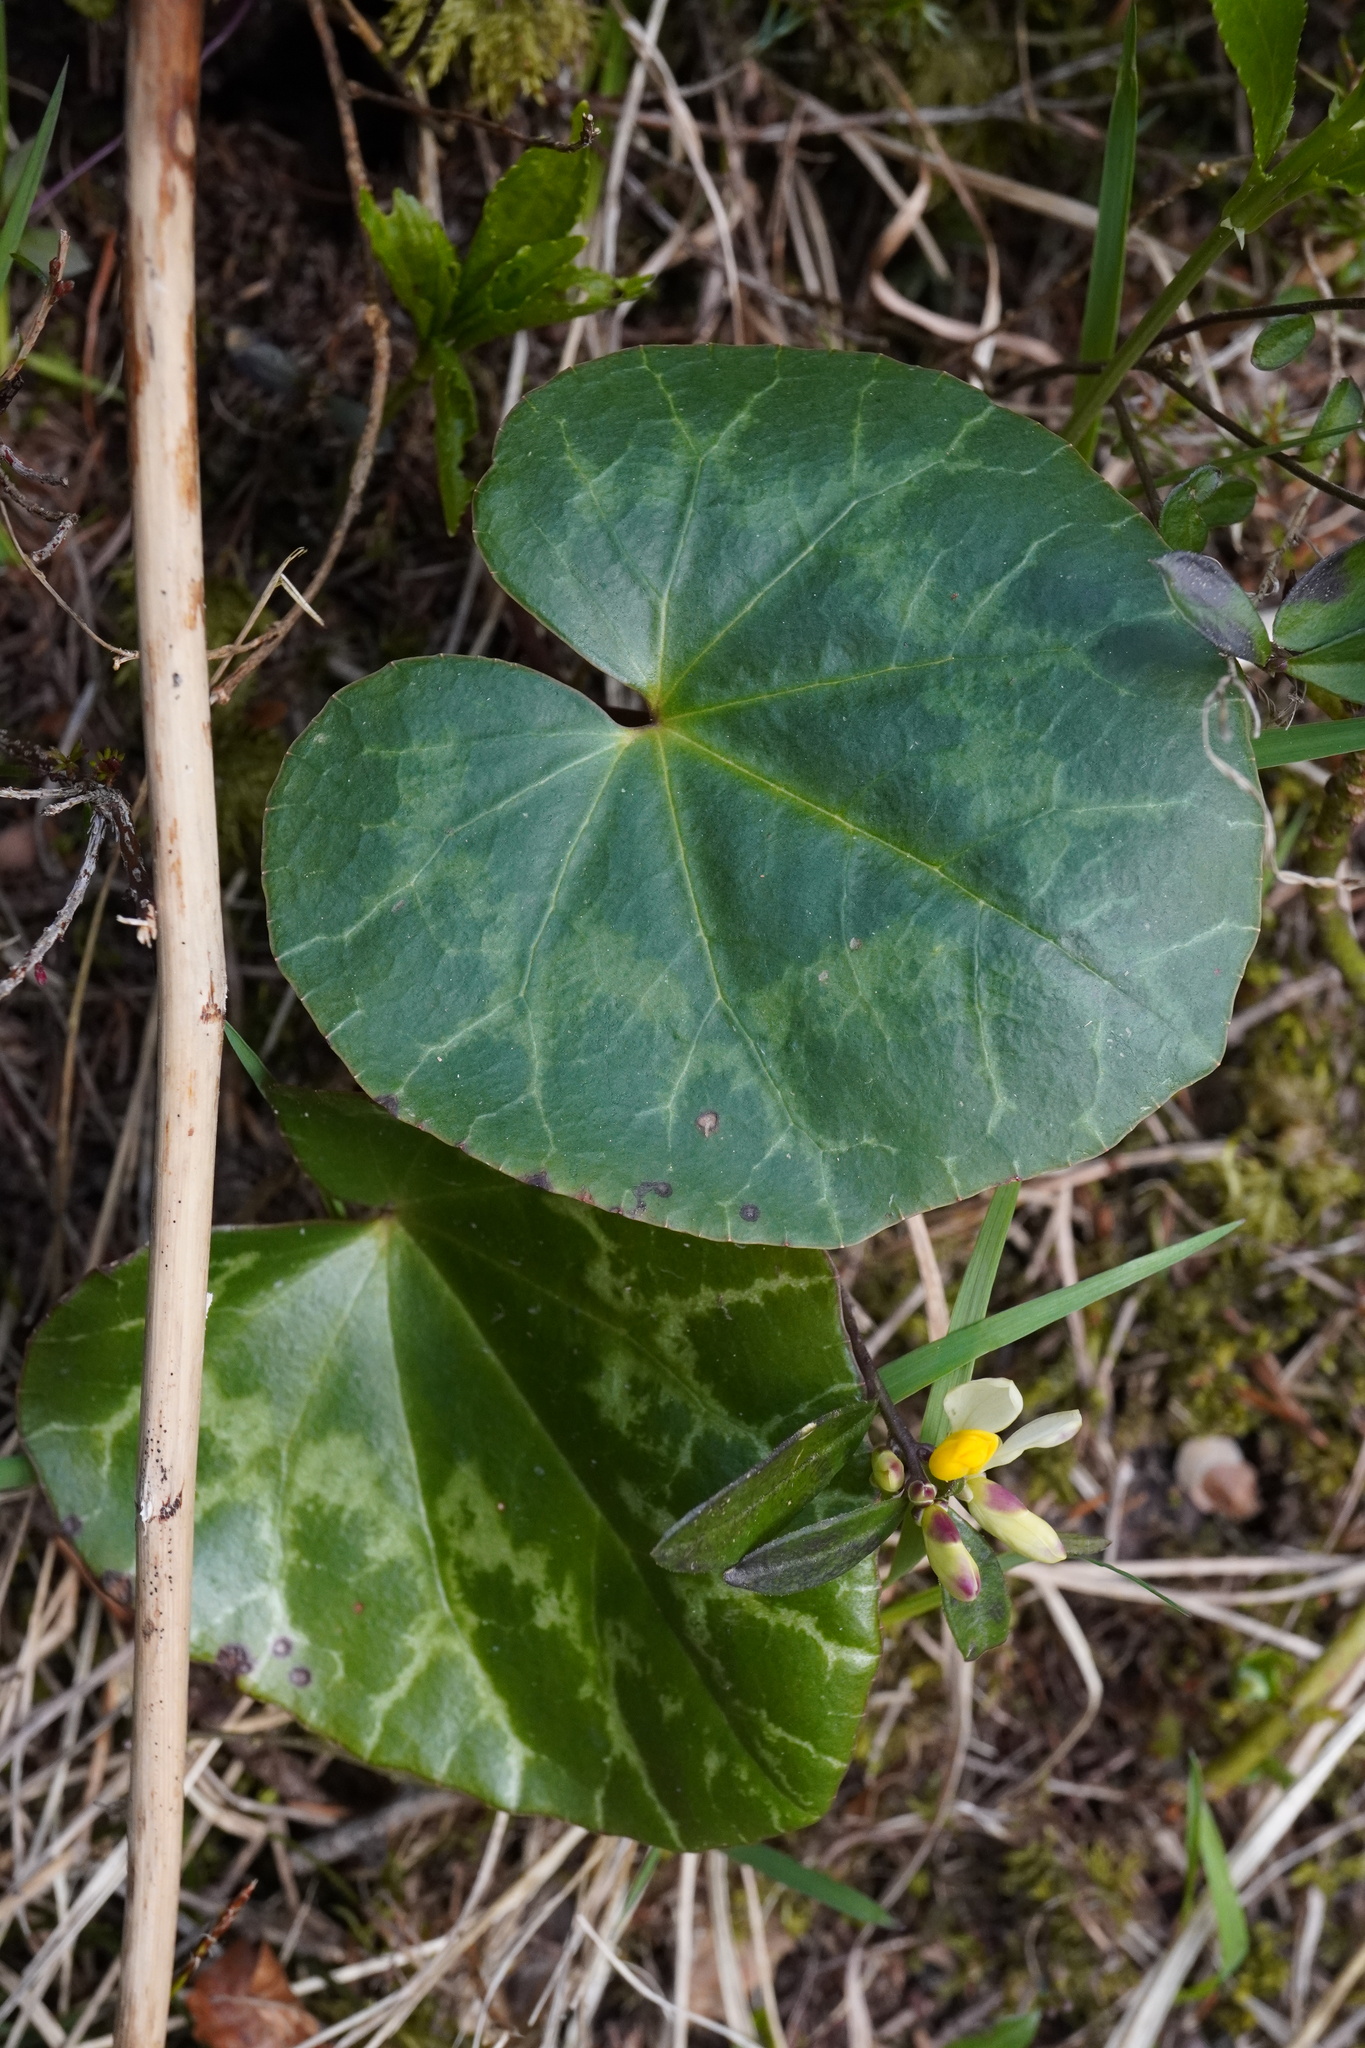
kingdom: Plantae
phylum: Tracheophyta
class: Magnoliopsida
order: Ericales
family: Primulaceae
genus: Cyclamen
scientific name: Cyclamen purpurascens
